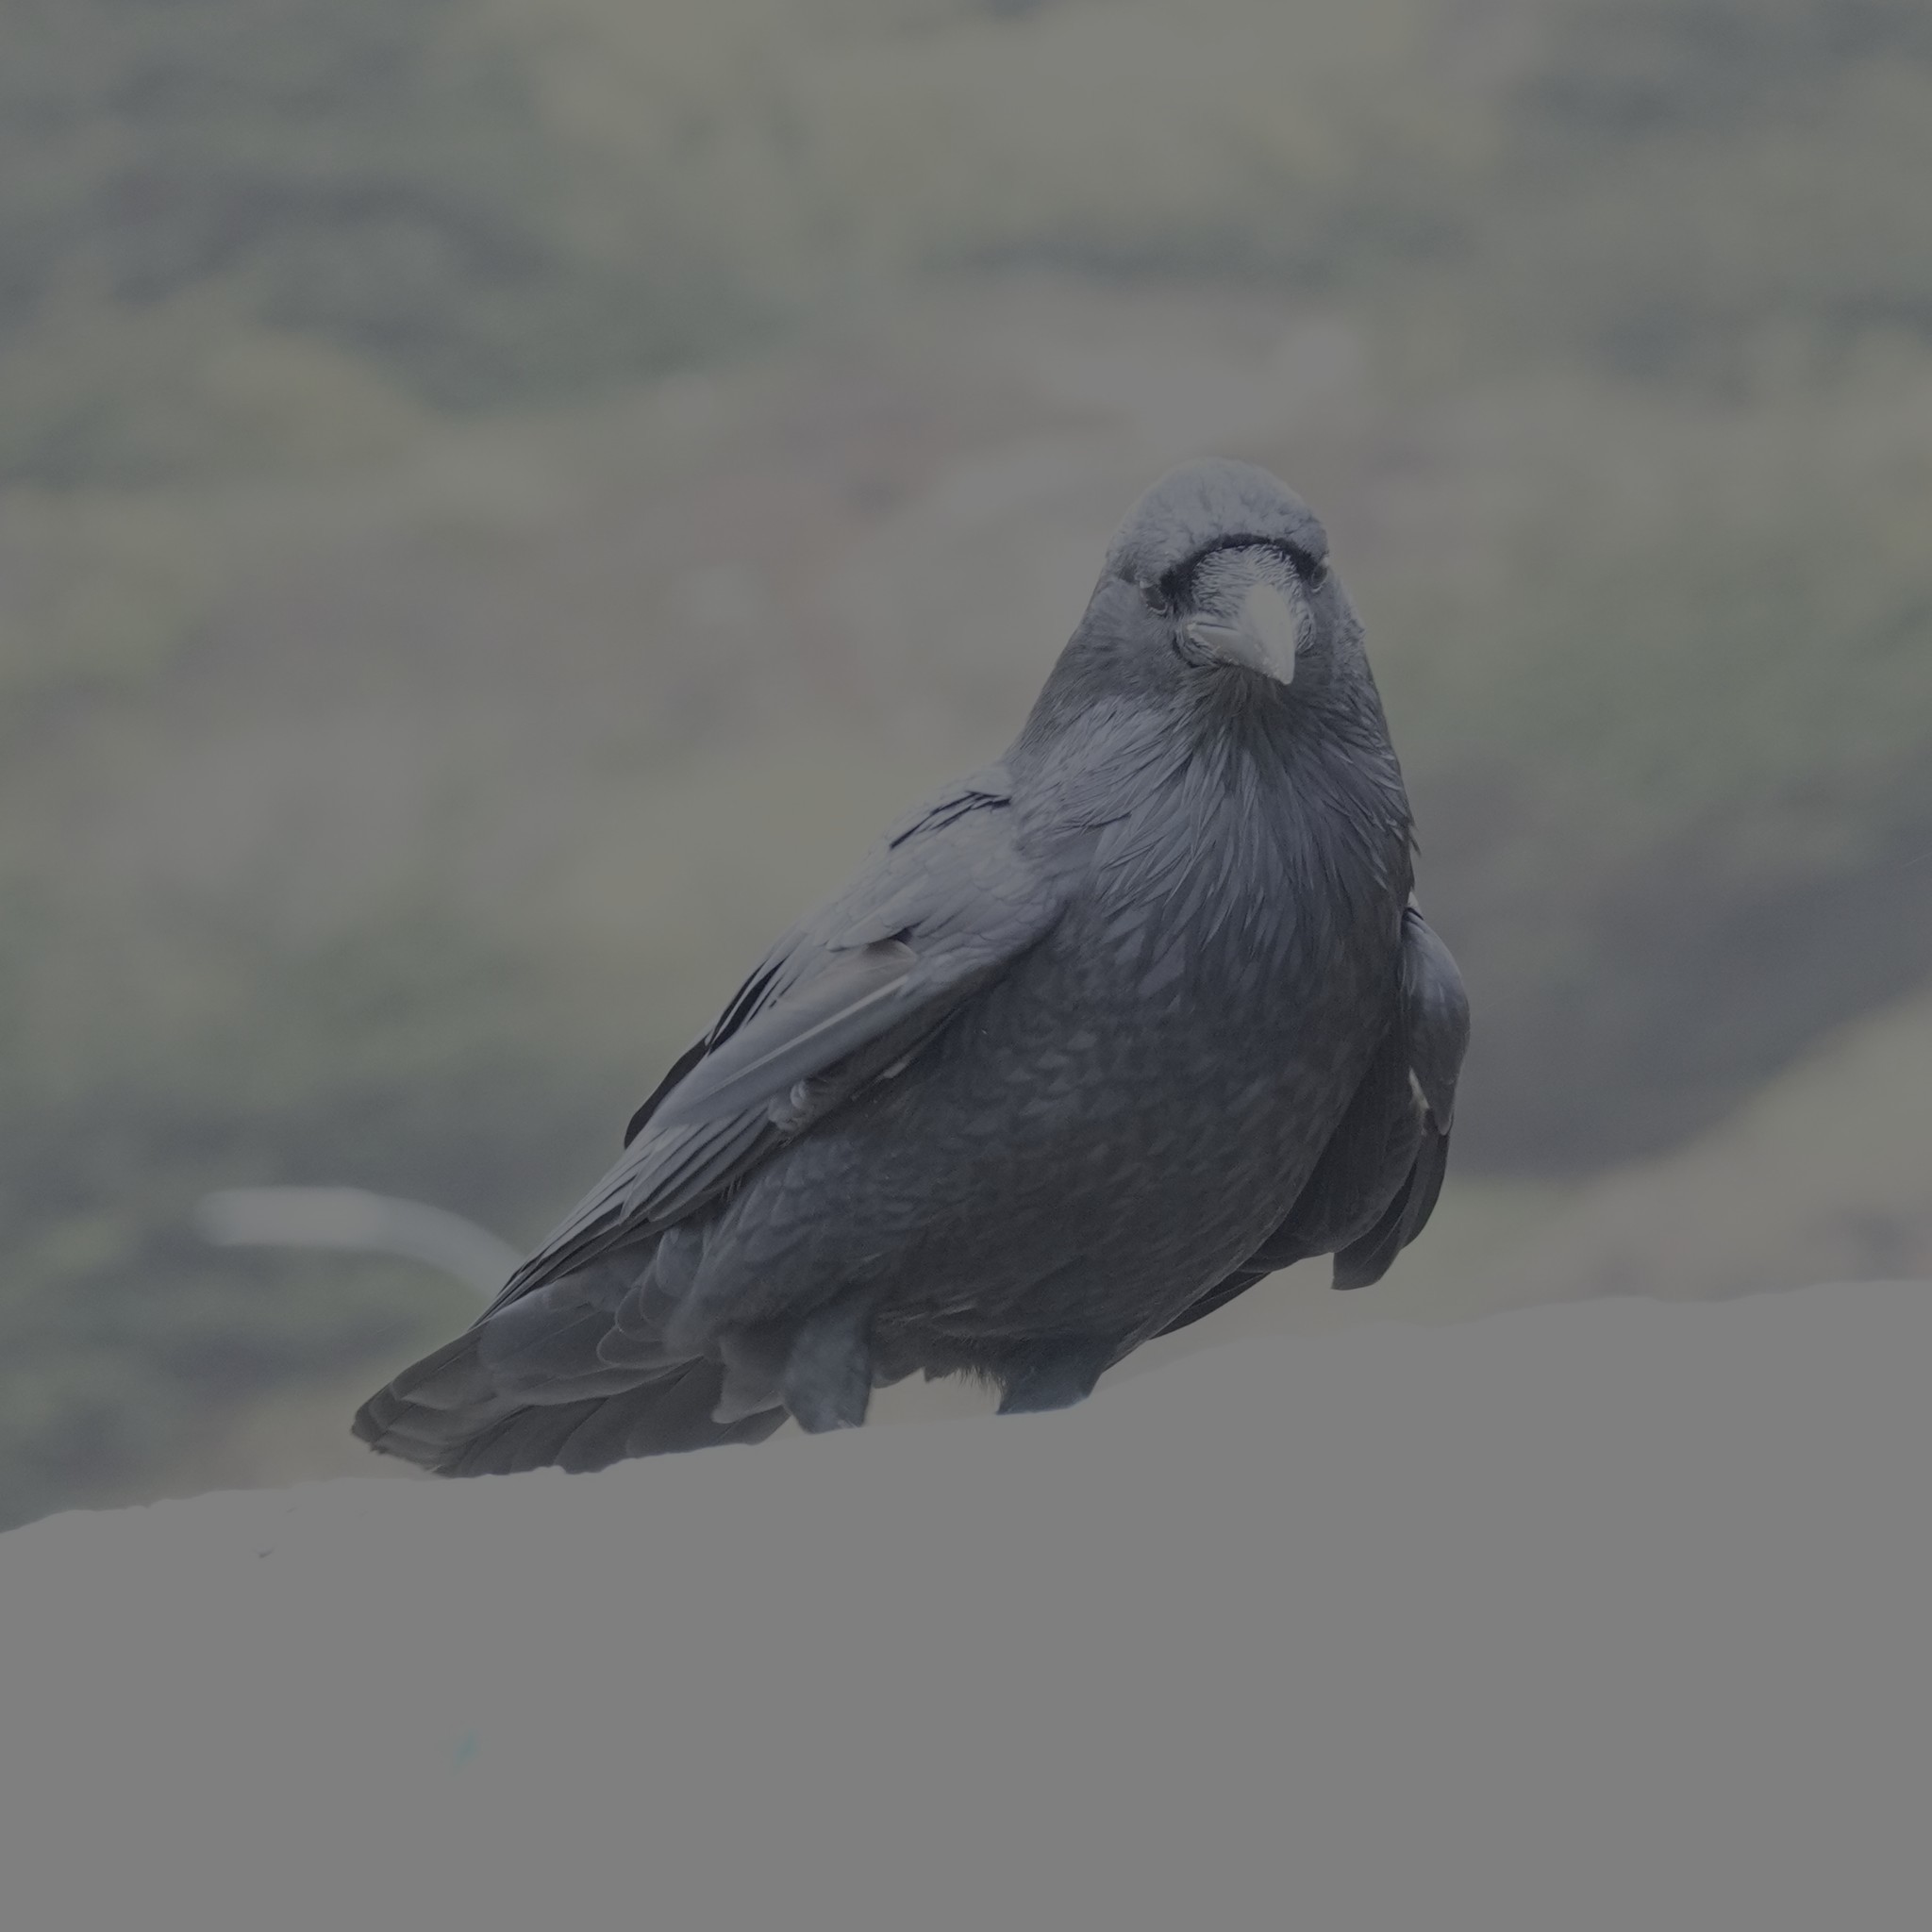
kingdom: Animalia
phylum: Chordata
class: Aves
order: Passeriformes
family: Corvidae
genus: Corvus
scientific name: Corvus corax
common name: Common raven
